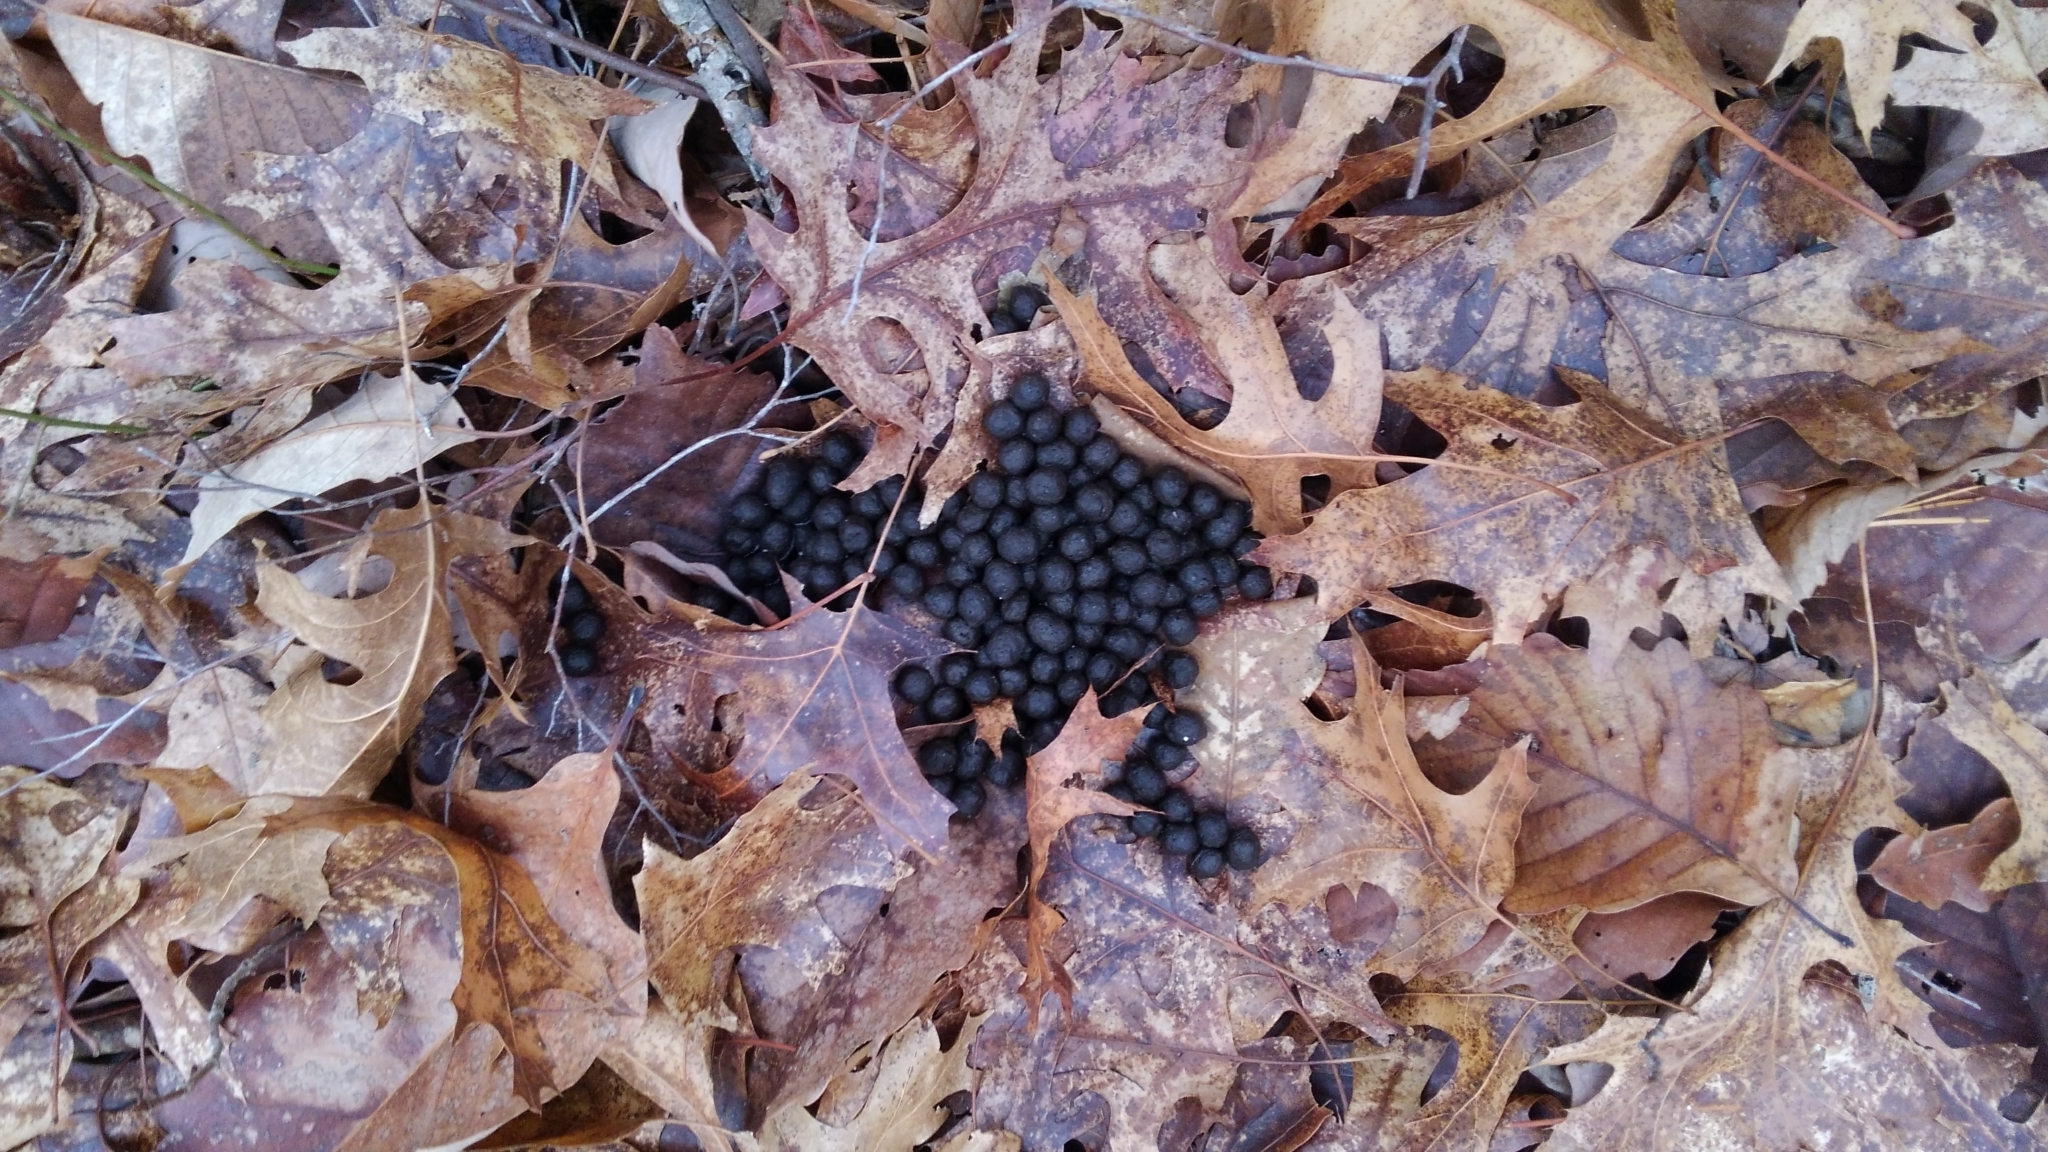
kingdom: Animalia
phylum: Chordata
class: Mammalia
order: Artiodactyla
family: Cervidae
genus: Odocoileus
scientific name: Odocoileus virginianus
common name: White-tailed deer
